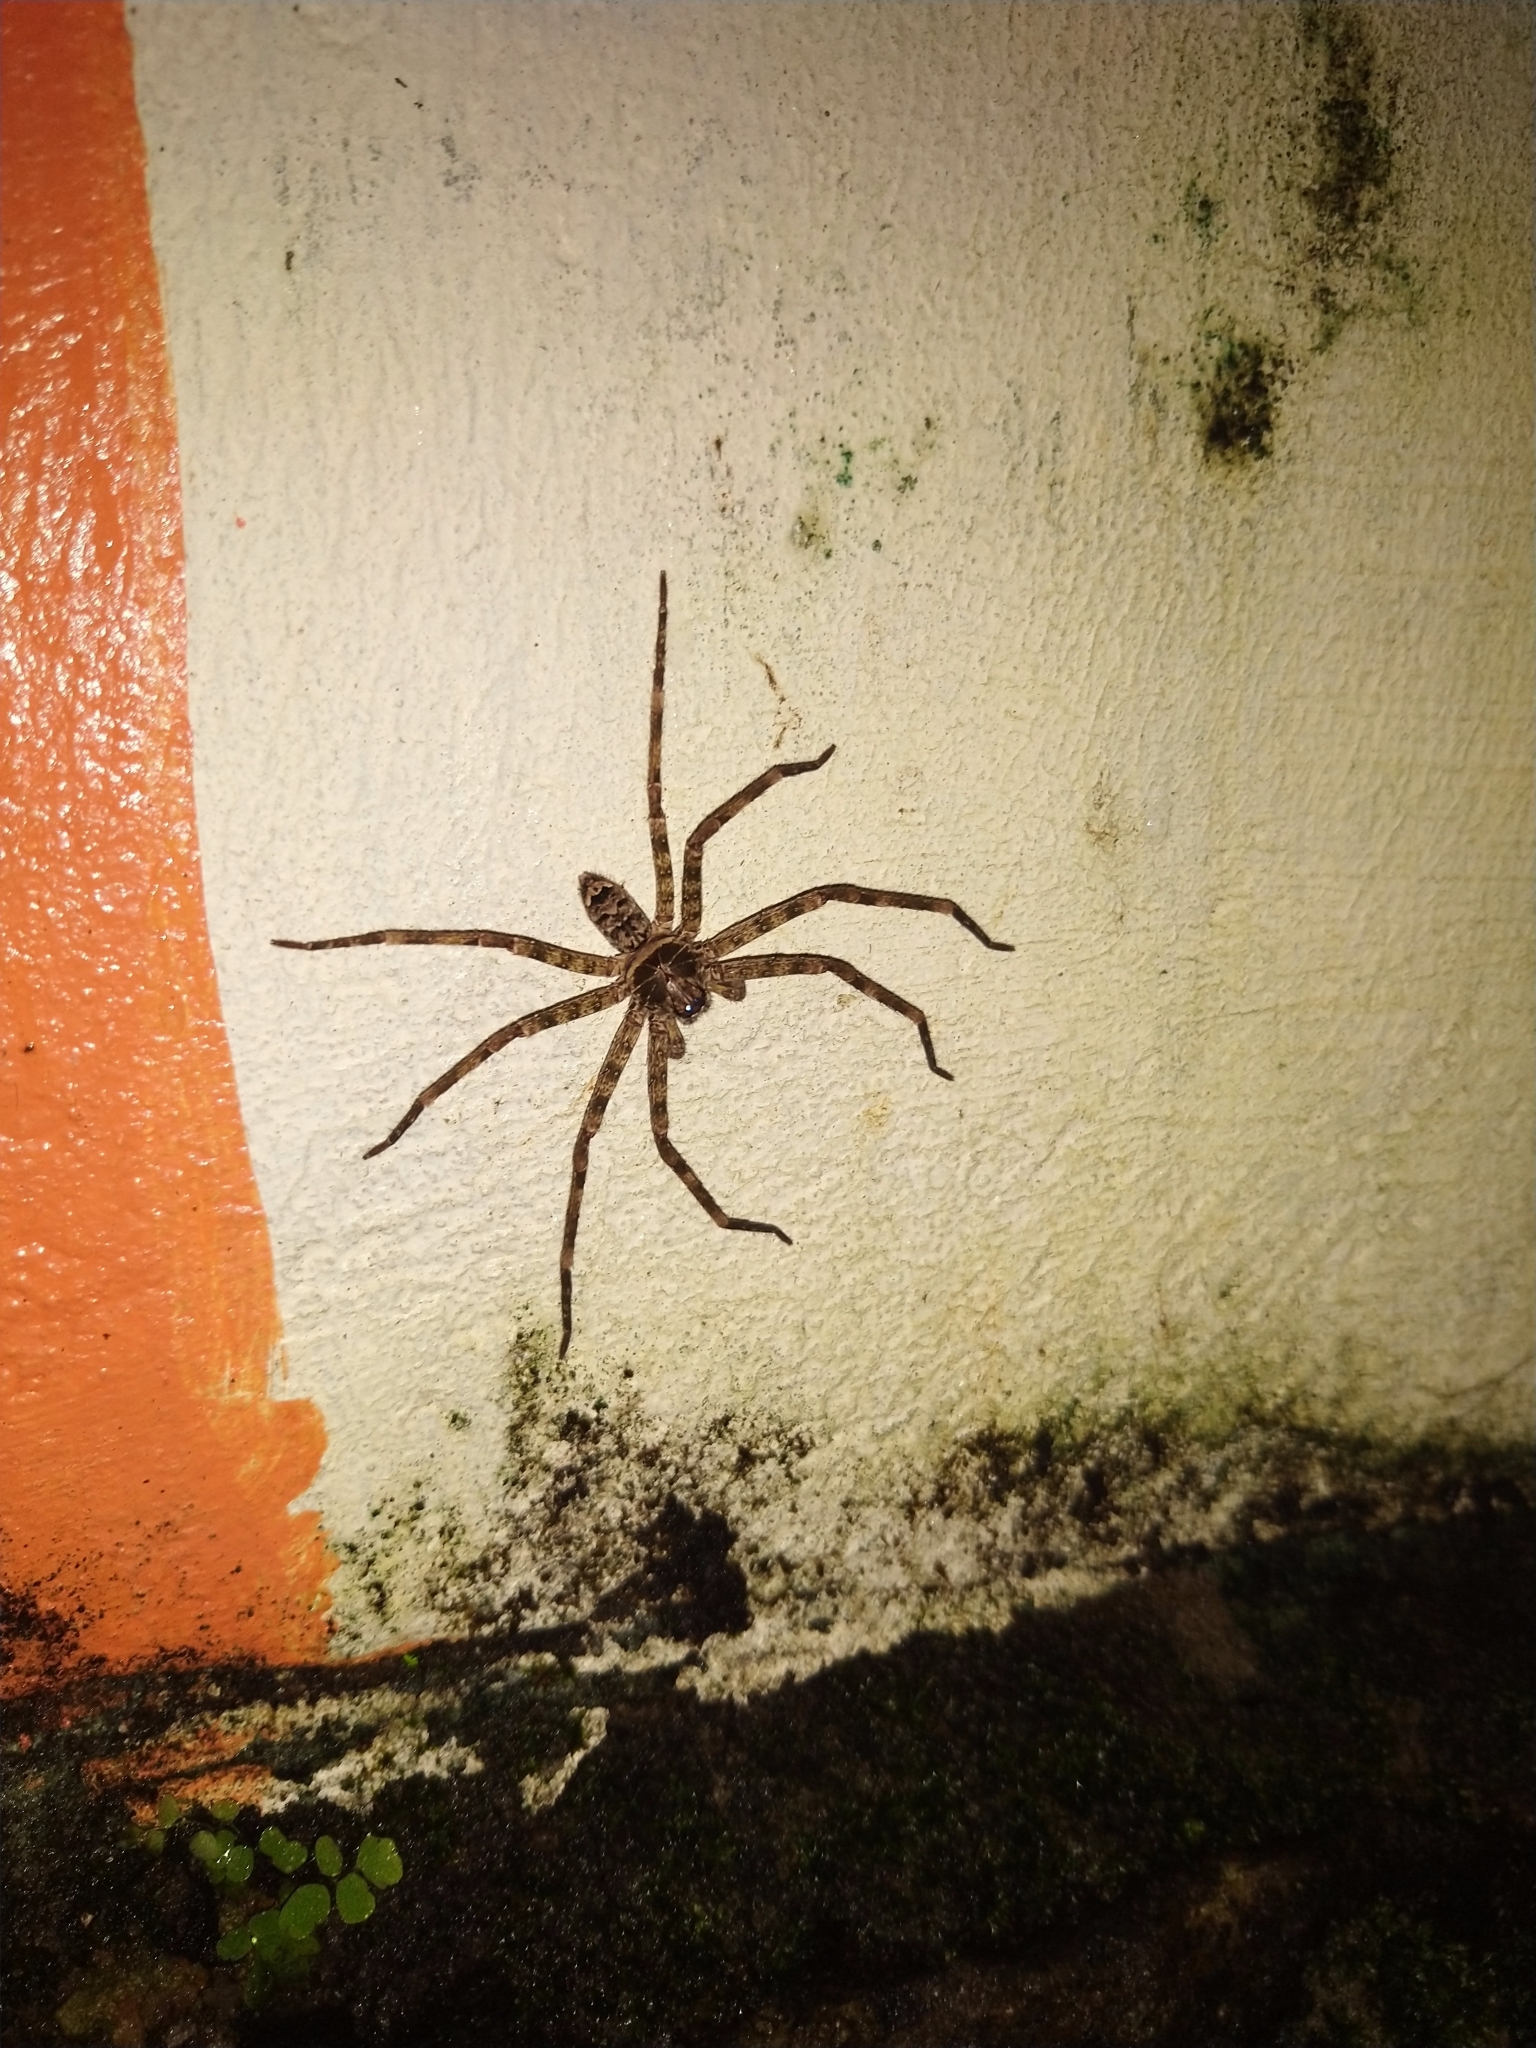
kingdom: Animalia
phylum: Arthropoda
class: Arachnida
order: Araneae
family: Sparassidae
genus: Heteropoda
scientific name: Heteropoda venatoria
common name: Huntsman spider
